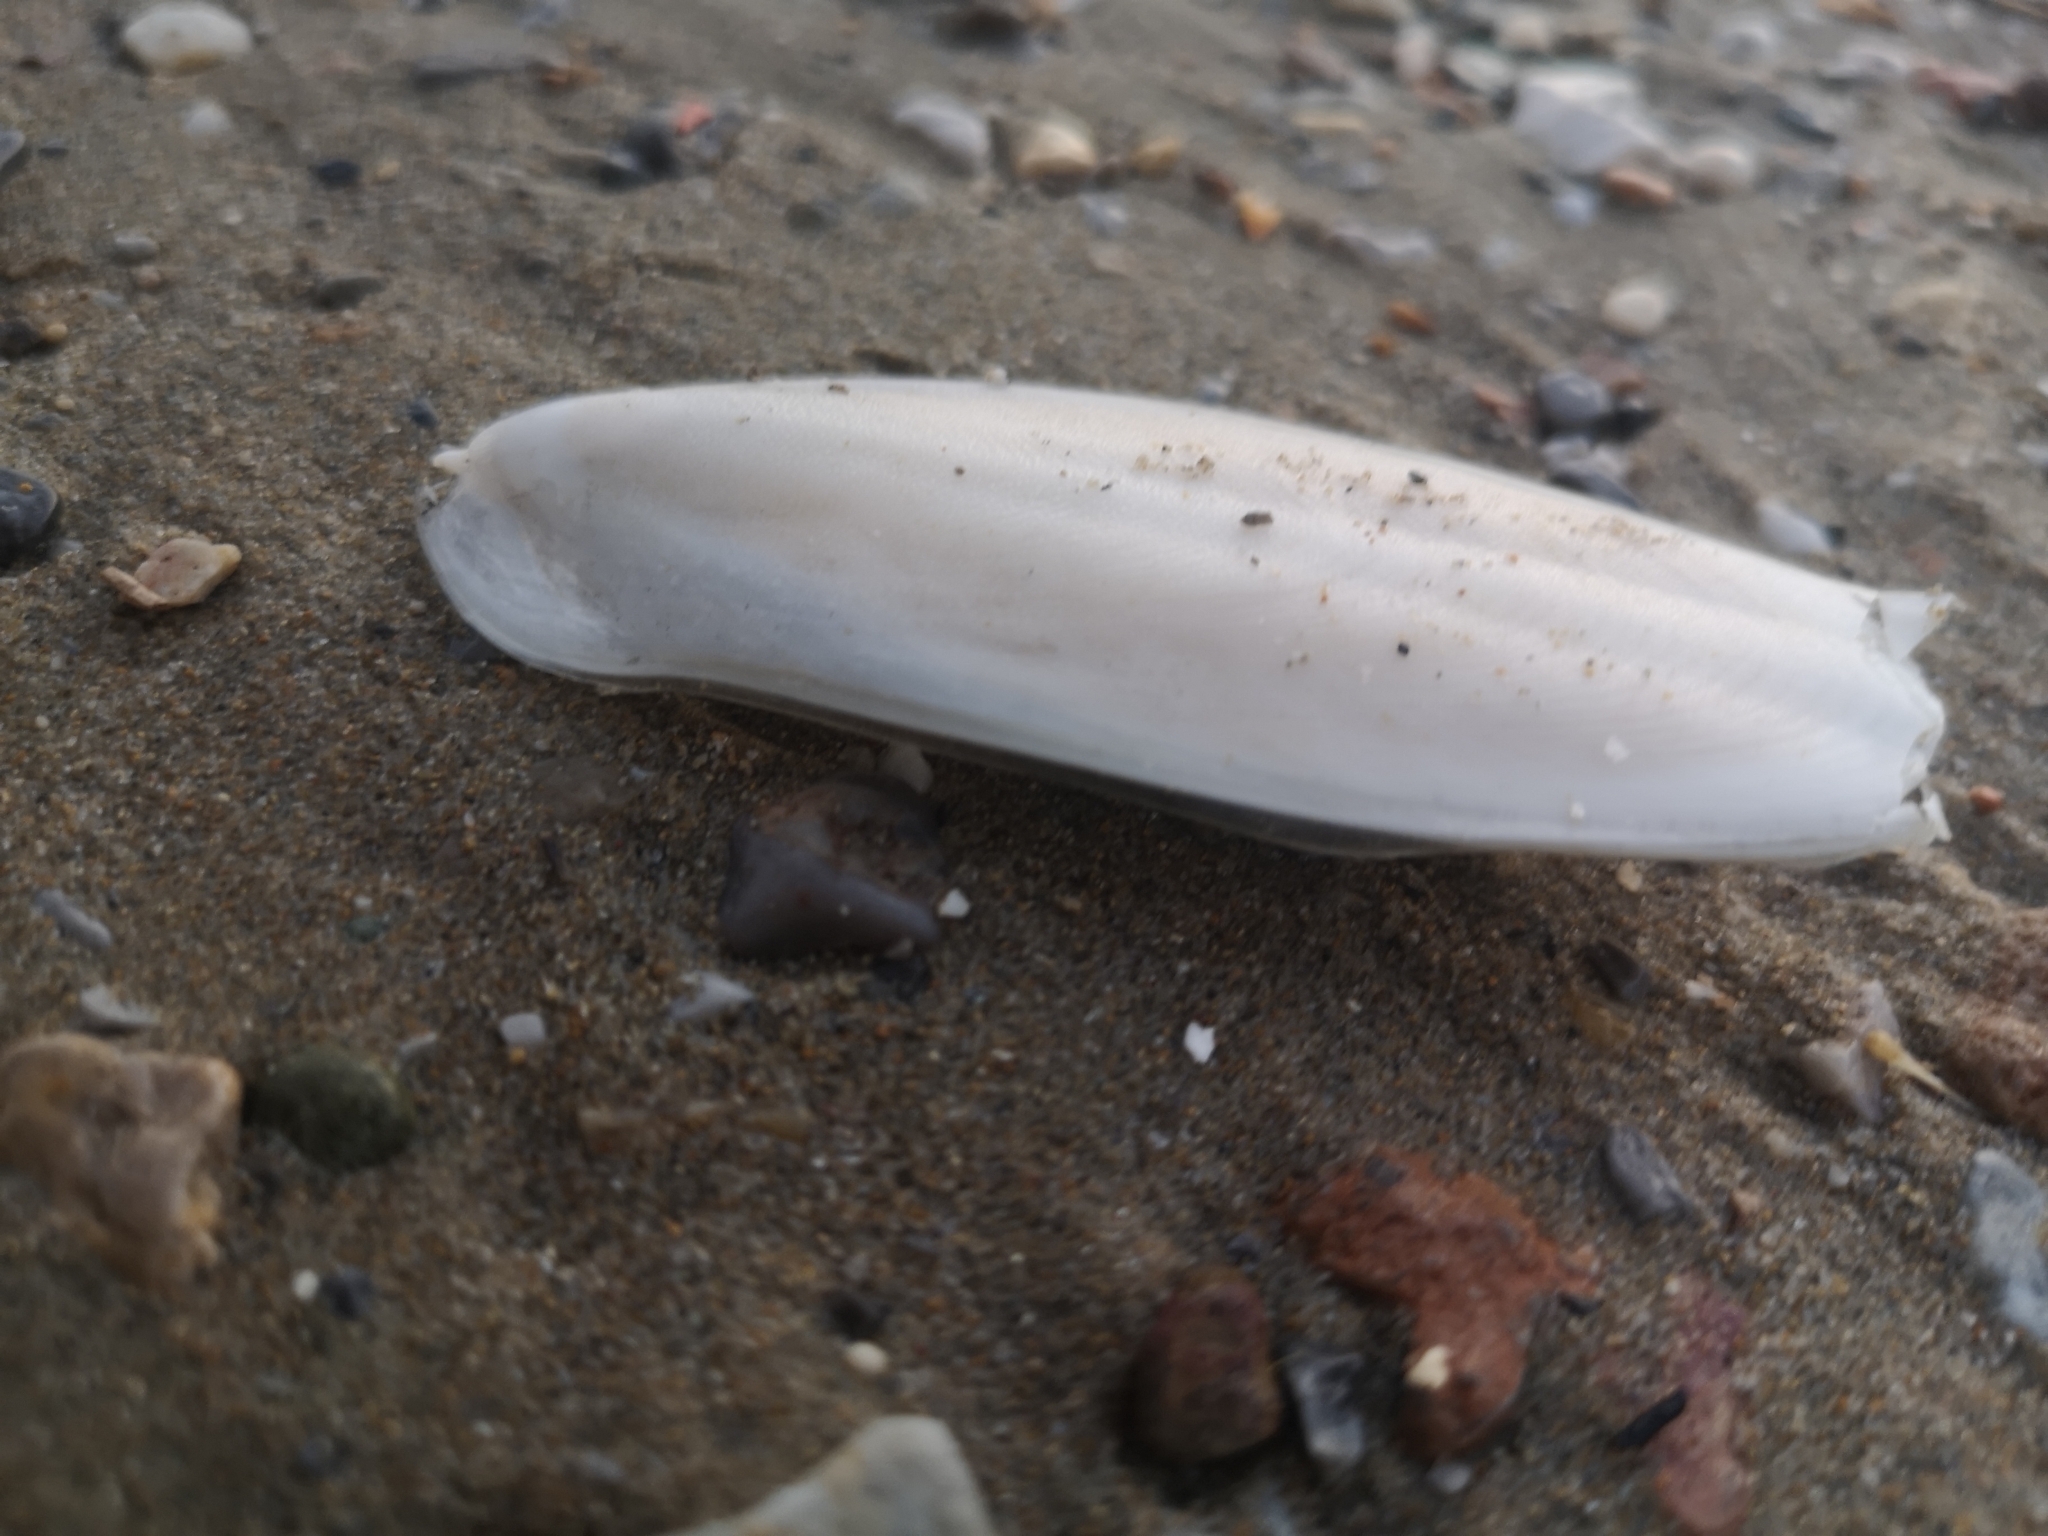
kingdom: Animalia
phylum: Mollusca
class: Cephalopoda
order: Sepiida
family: Sepiidae
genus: Sepia
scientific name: Sepia officinalis
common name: Common cuttlefish
